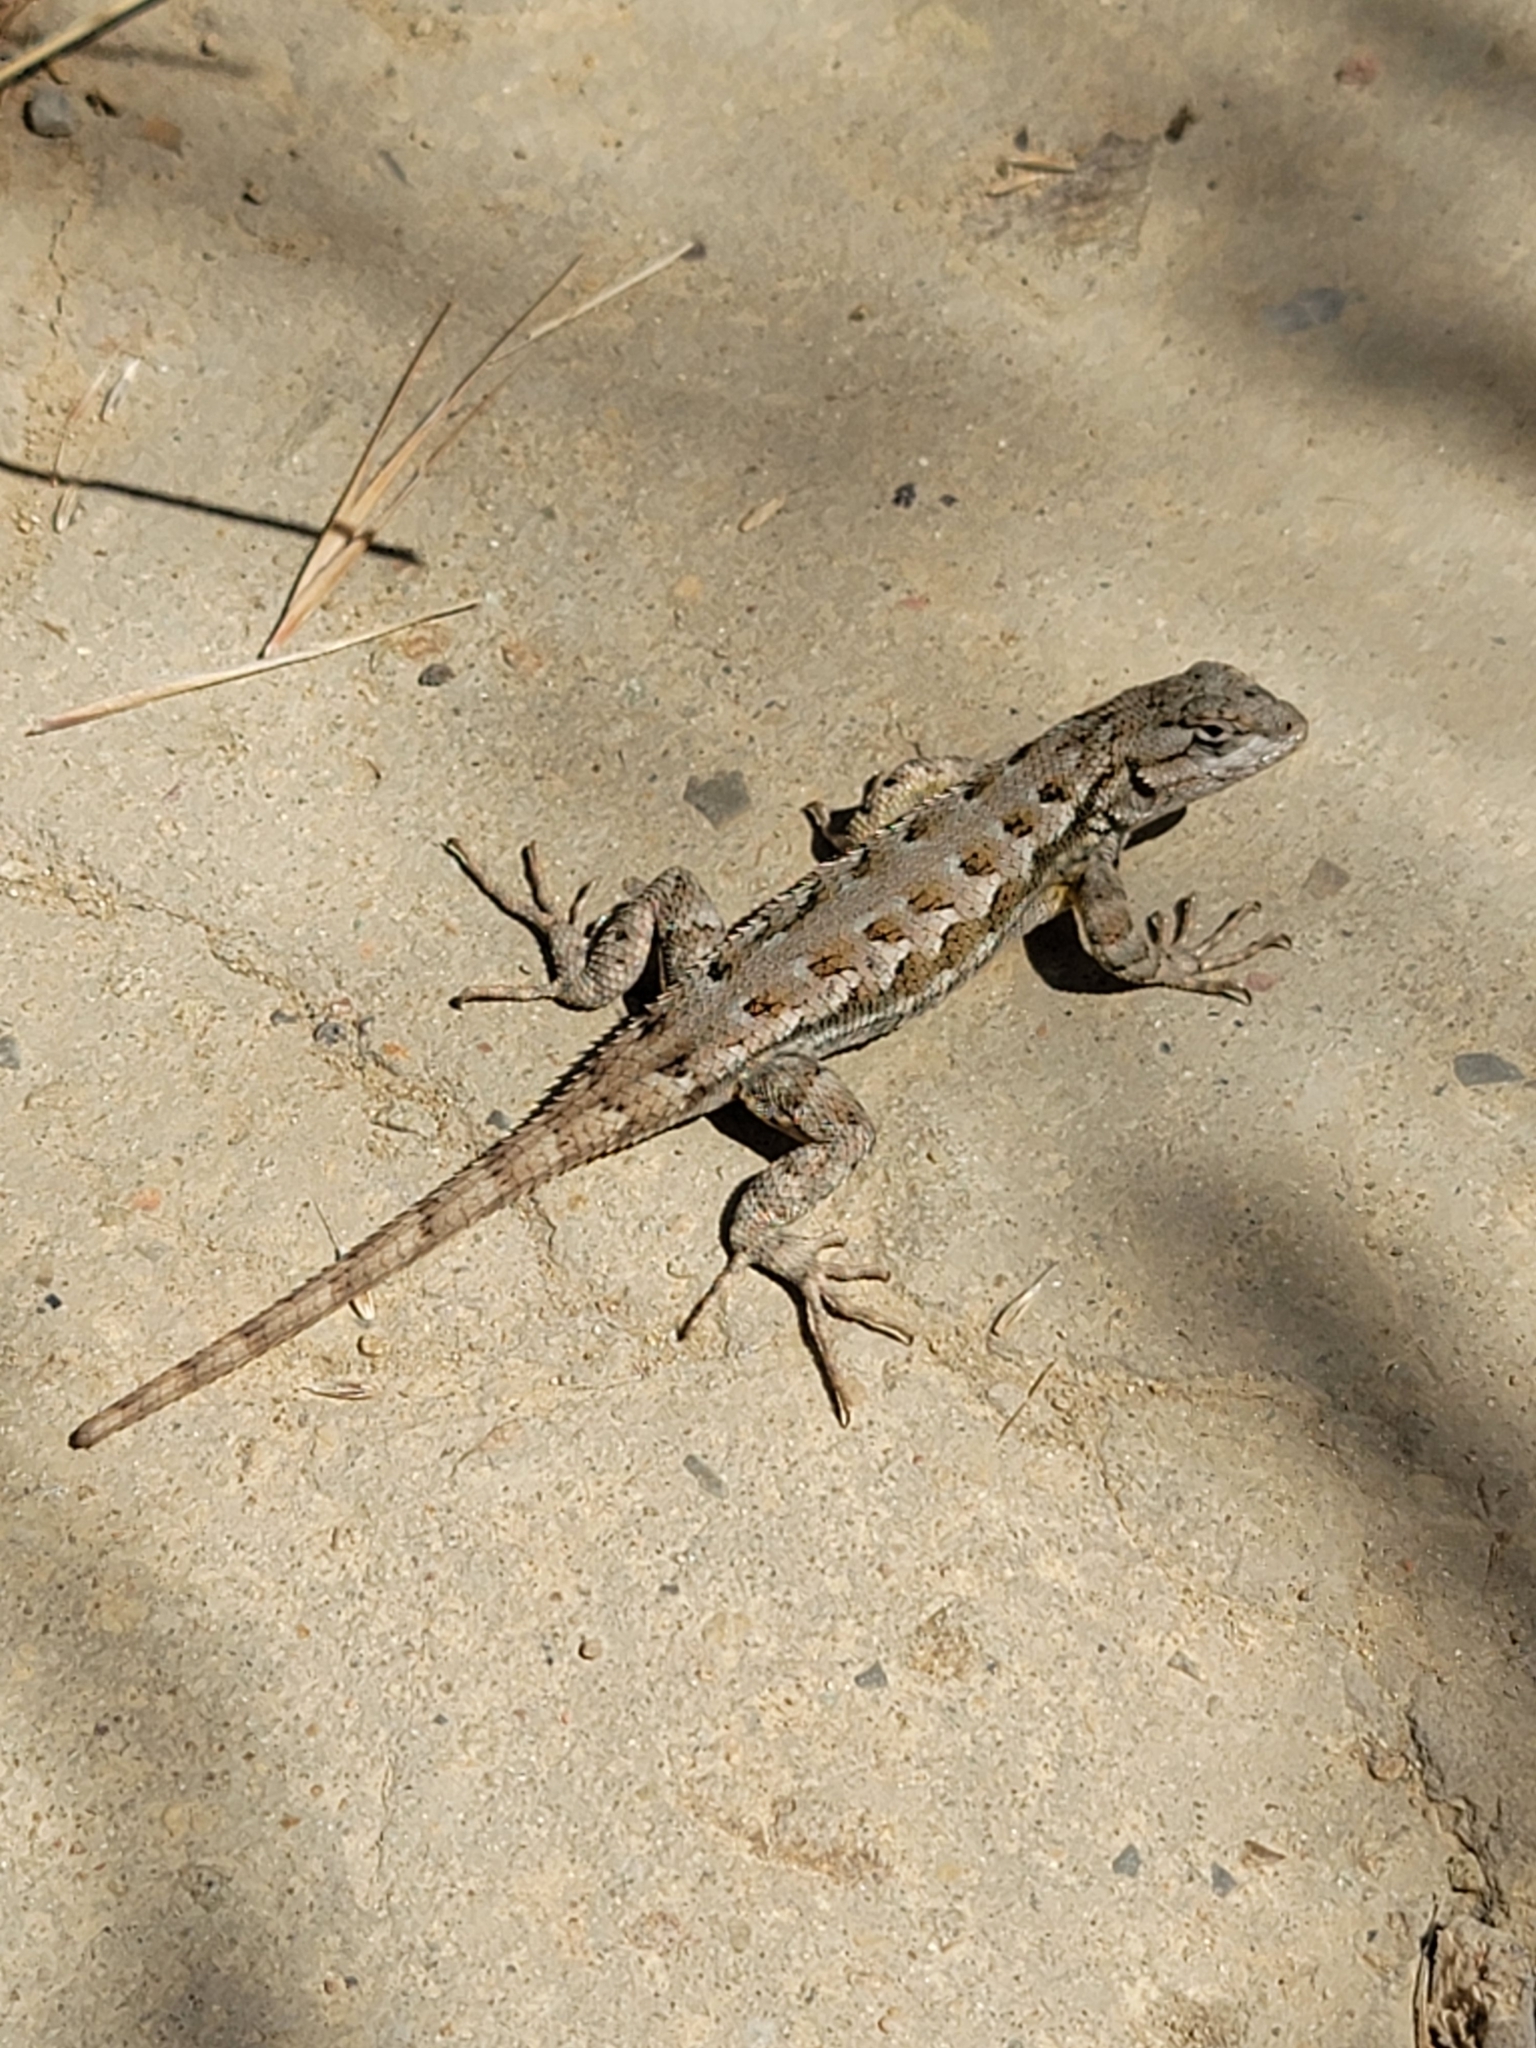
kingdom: Animalia
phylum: Chordata
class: Squamata
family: Phrynosomatidae
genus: Sceloporus
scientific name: Sceloporus occidentalis
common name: Western fence lizard
